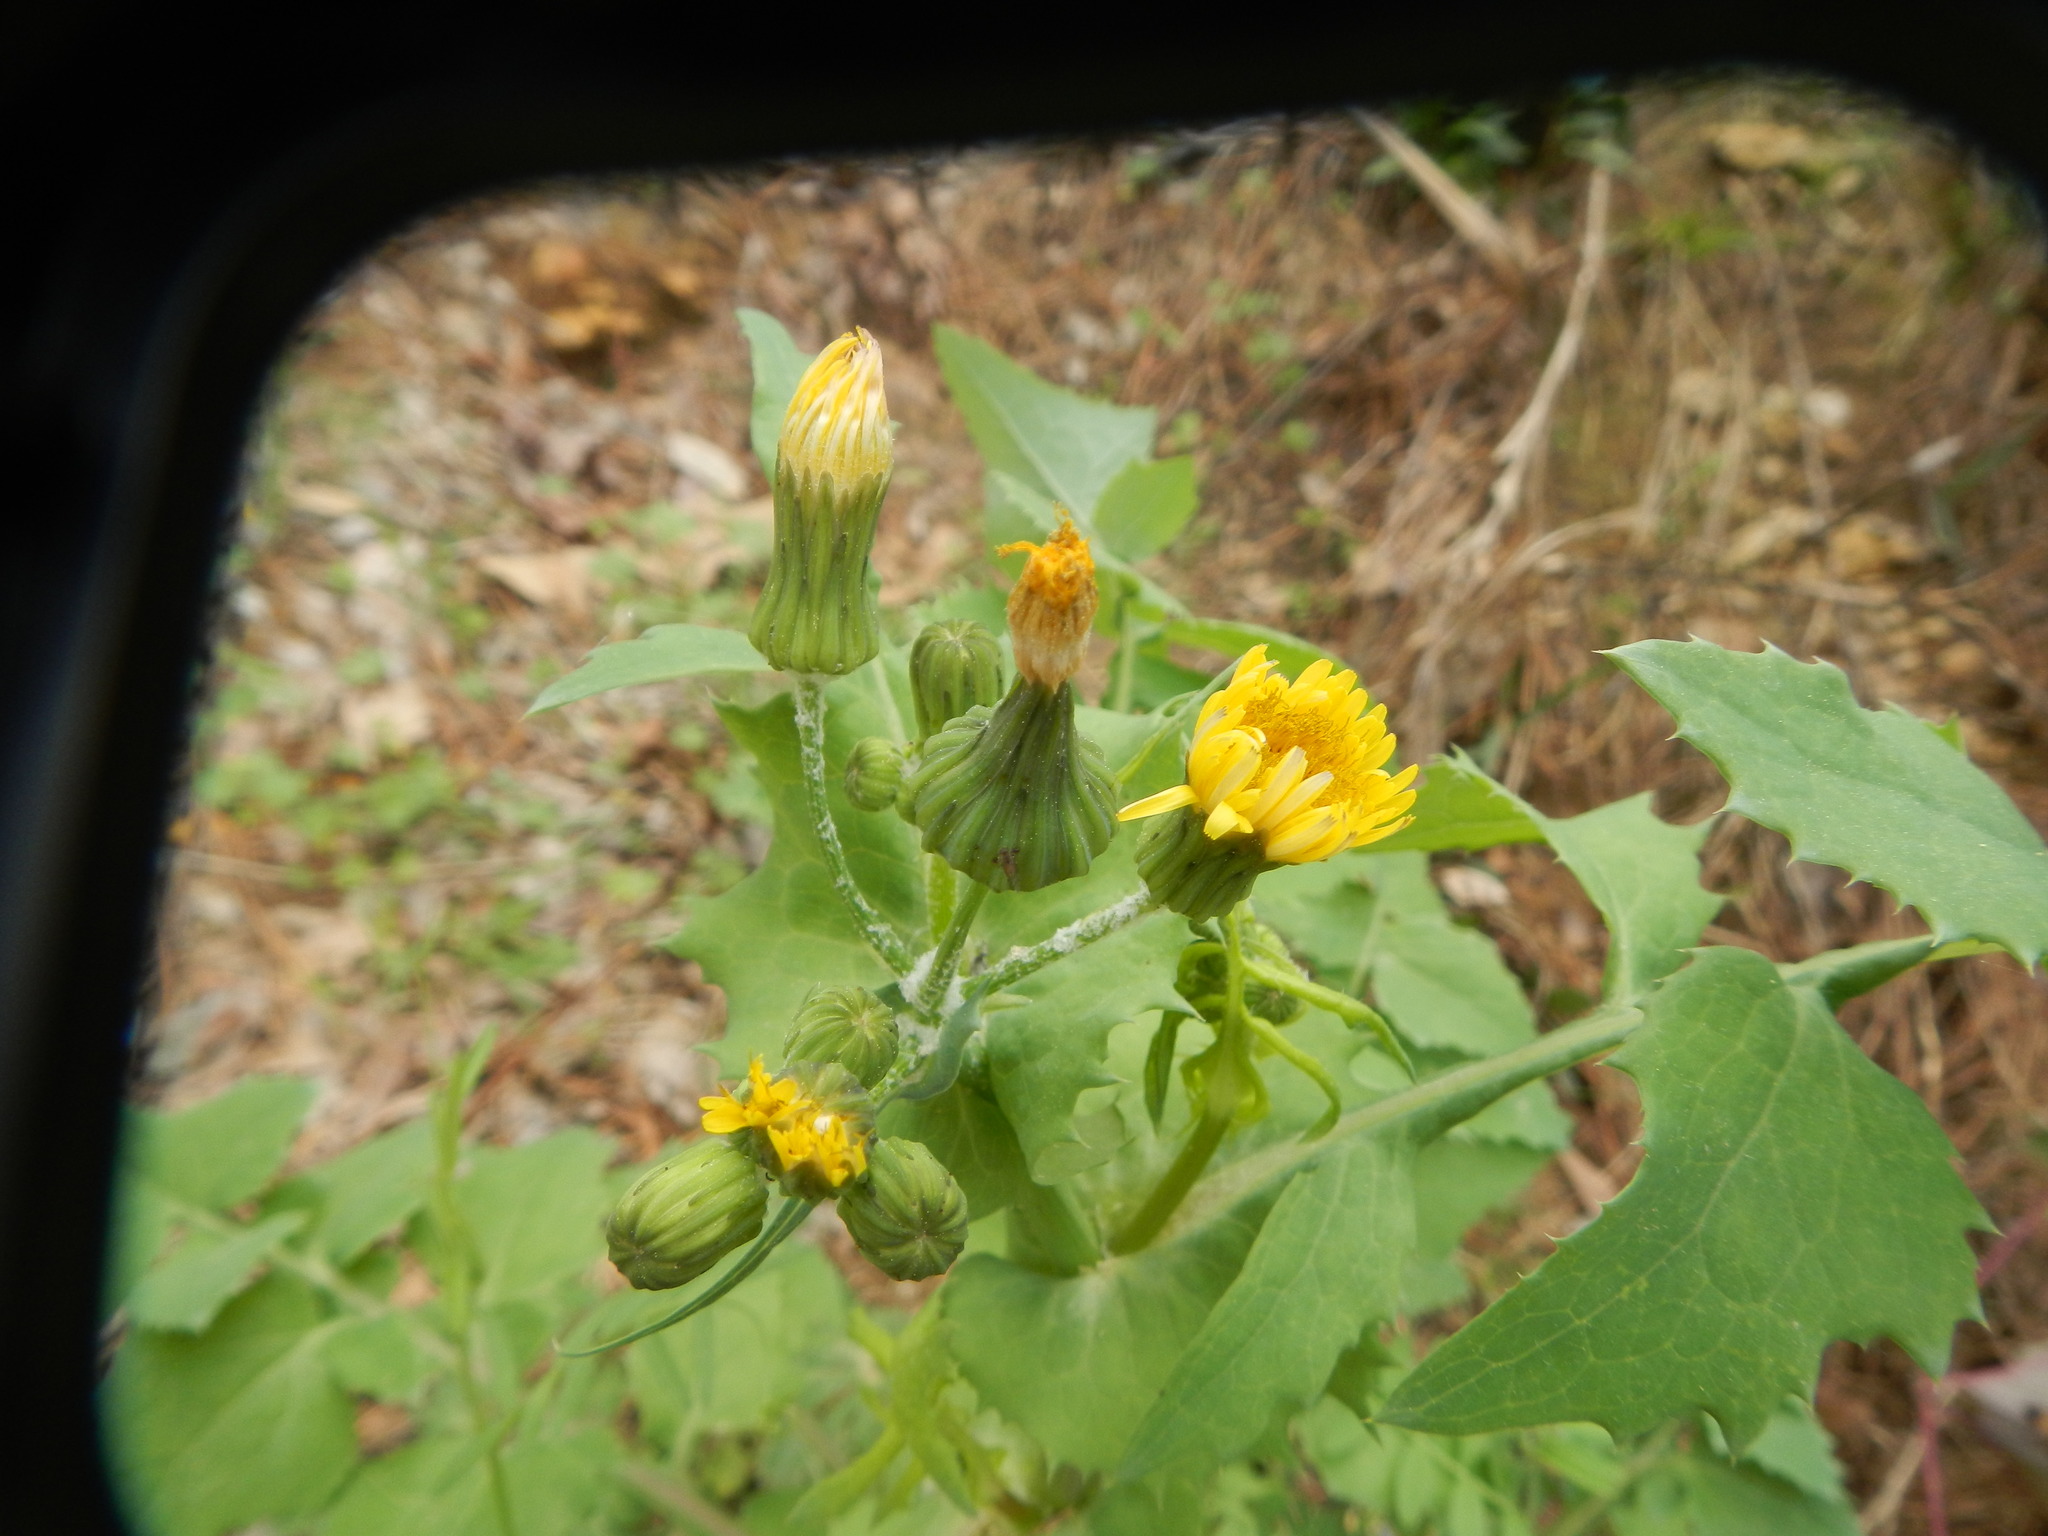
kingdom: Plantae
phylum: Tracheophyta
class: Magnoliopsida
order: Asterales
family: Asteraceae
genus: Sonchus
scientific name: Sonchus oleraceus
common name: Common sowthistle
